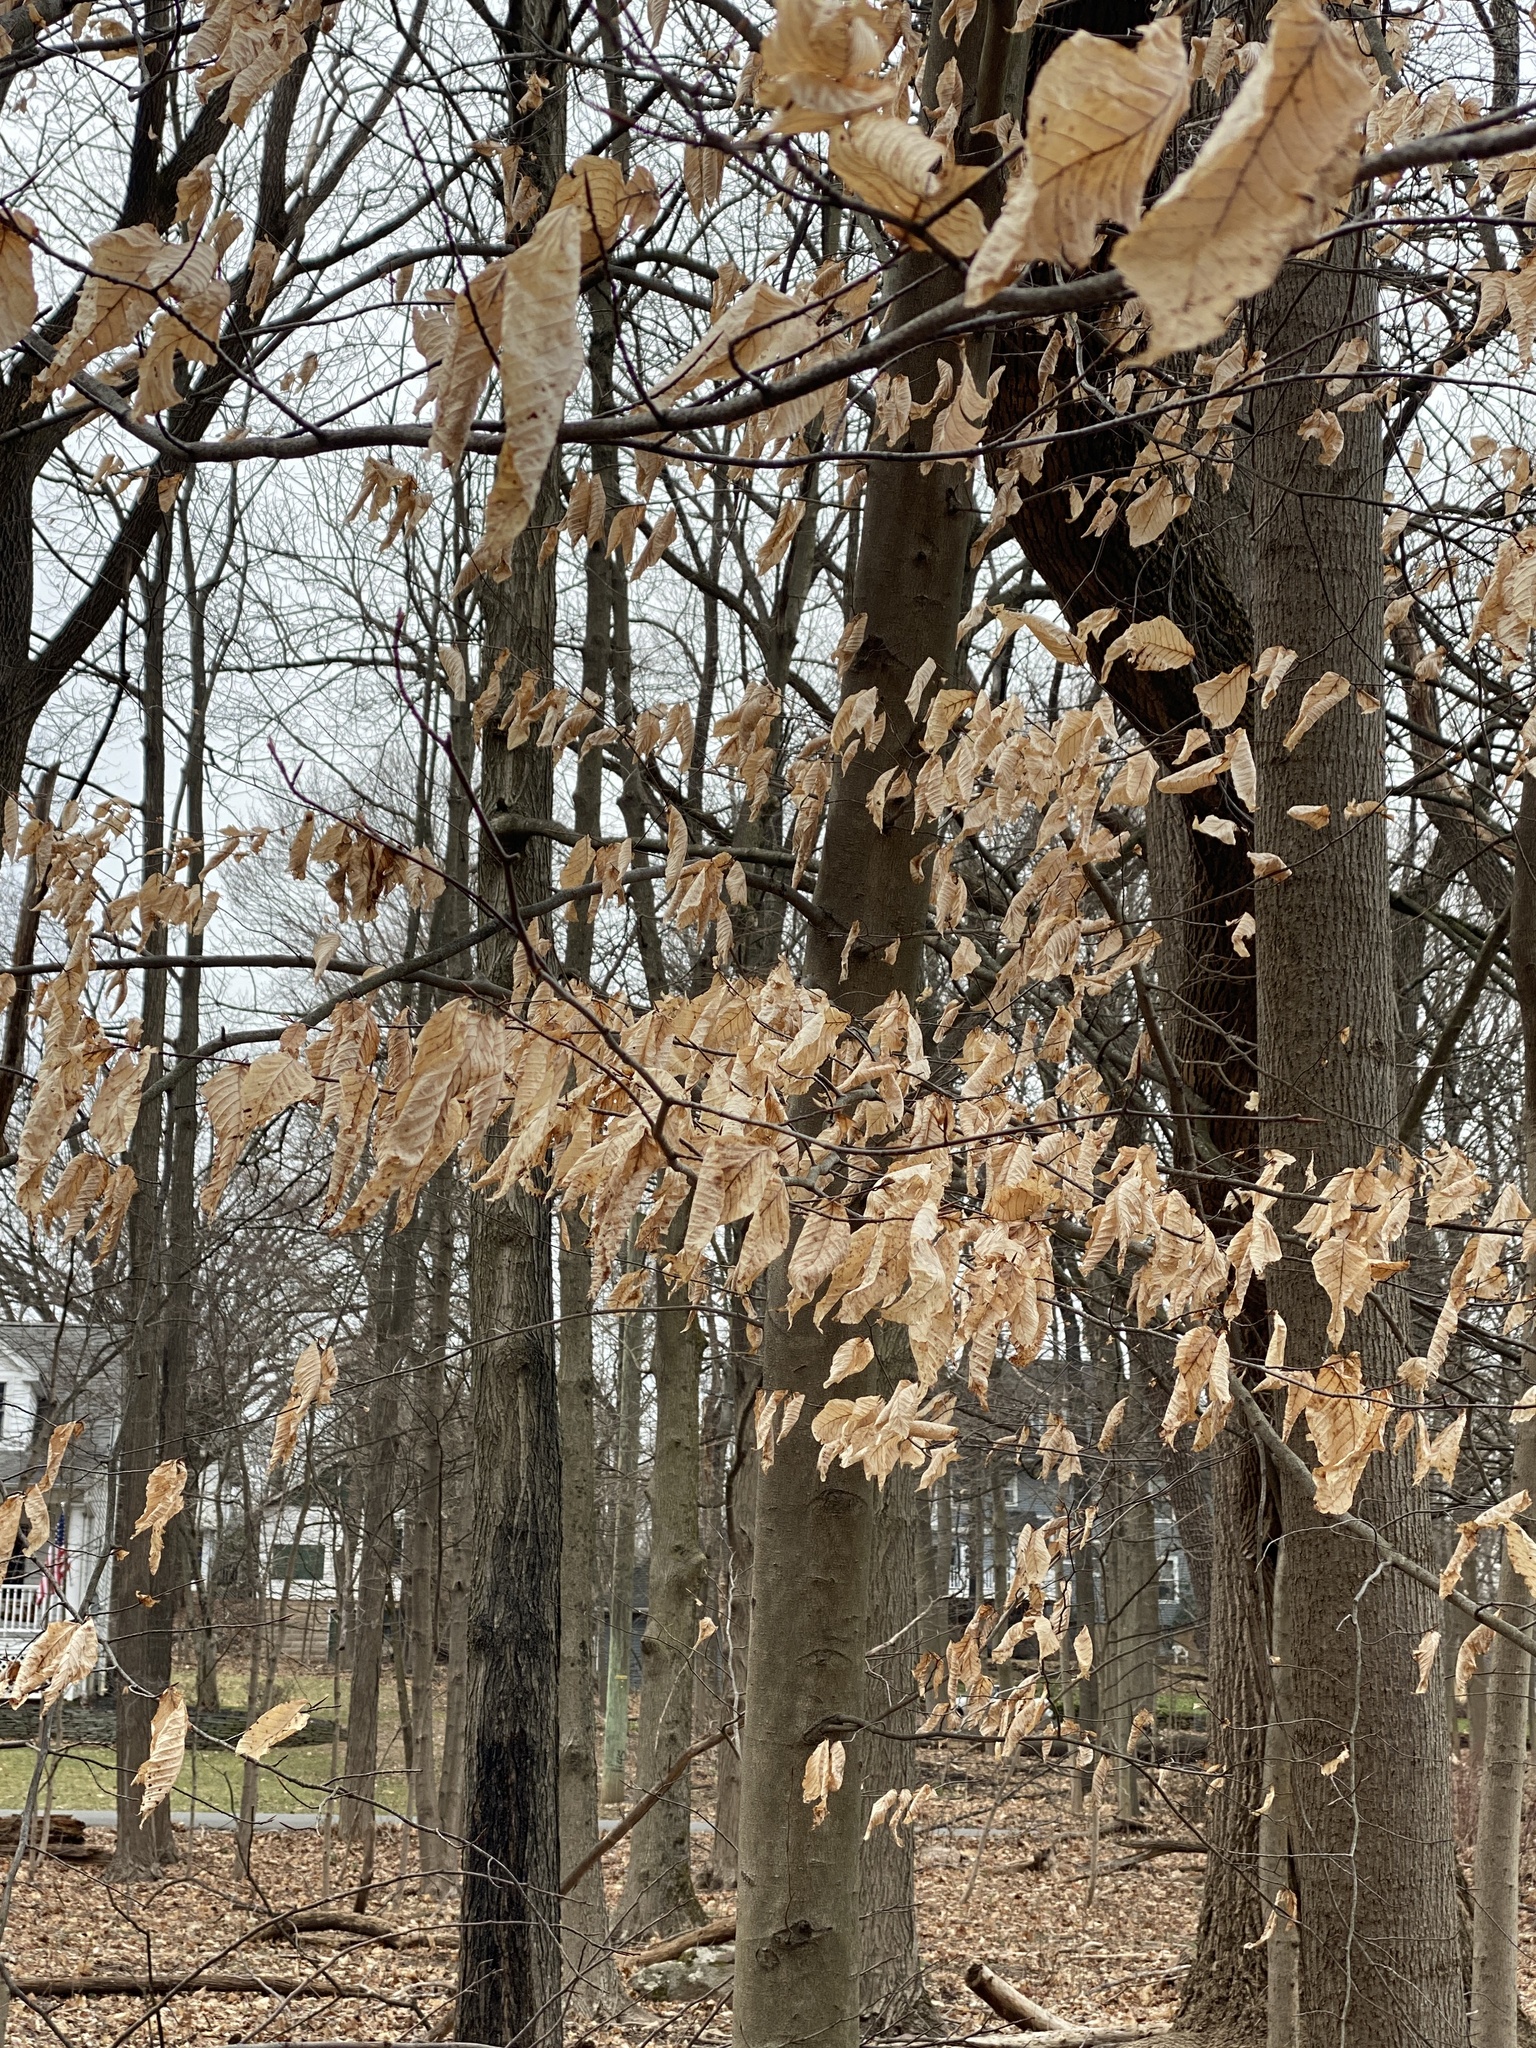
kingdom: Plantae
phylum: Tracheophyta
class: Magnoliopsida
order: Fagales
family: Fagaceae
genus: Fagus
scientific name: Fagus grandifolia
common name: American beech
